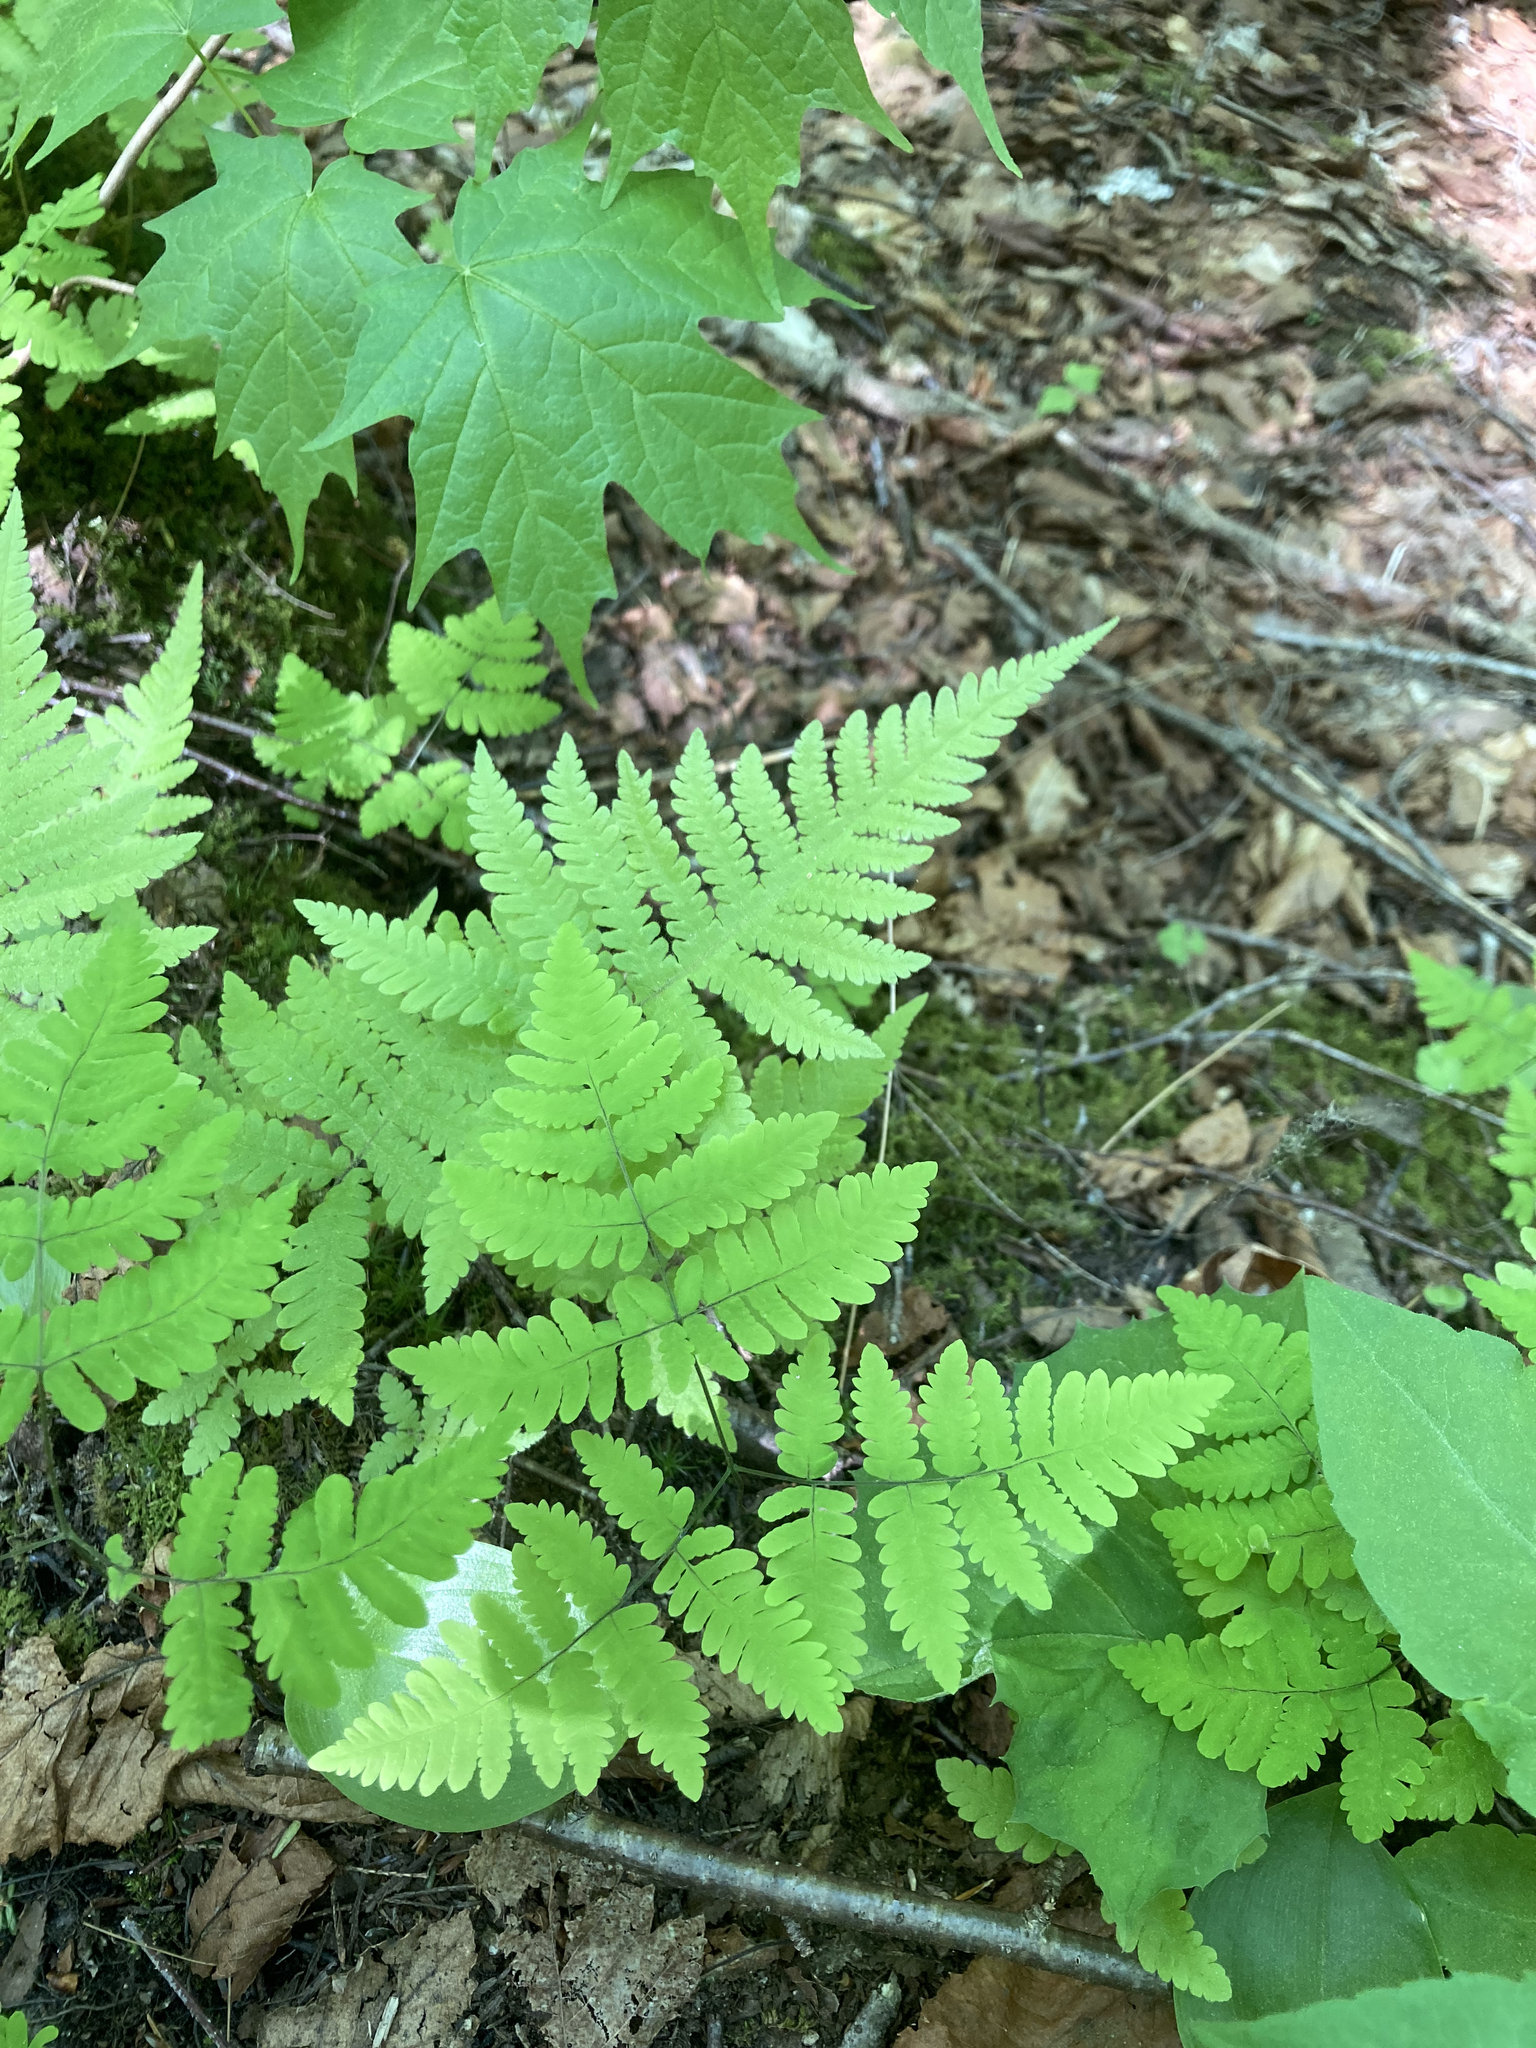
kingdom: Plantae
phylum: Tracheophyta
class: Polypodiopsida
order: Polypodiales
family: Cystopteridaceae
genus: Gymnocarpium
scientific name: Gymnocarpium dryopteris
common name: Oak fern
